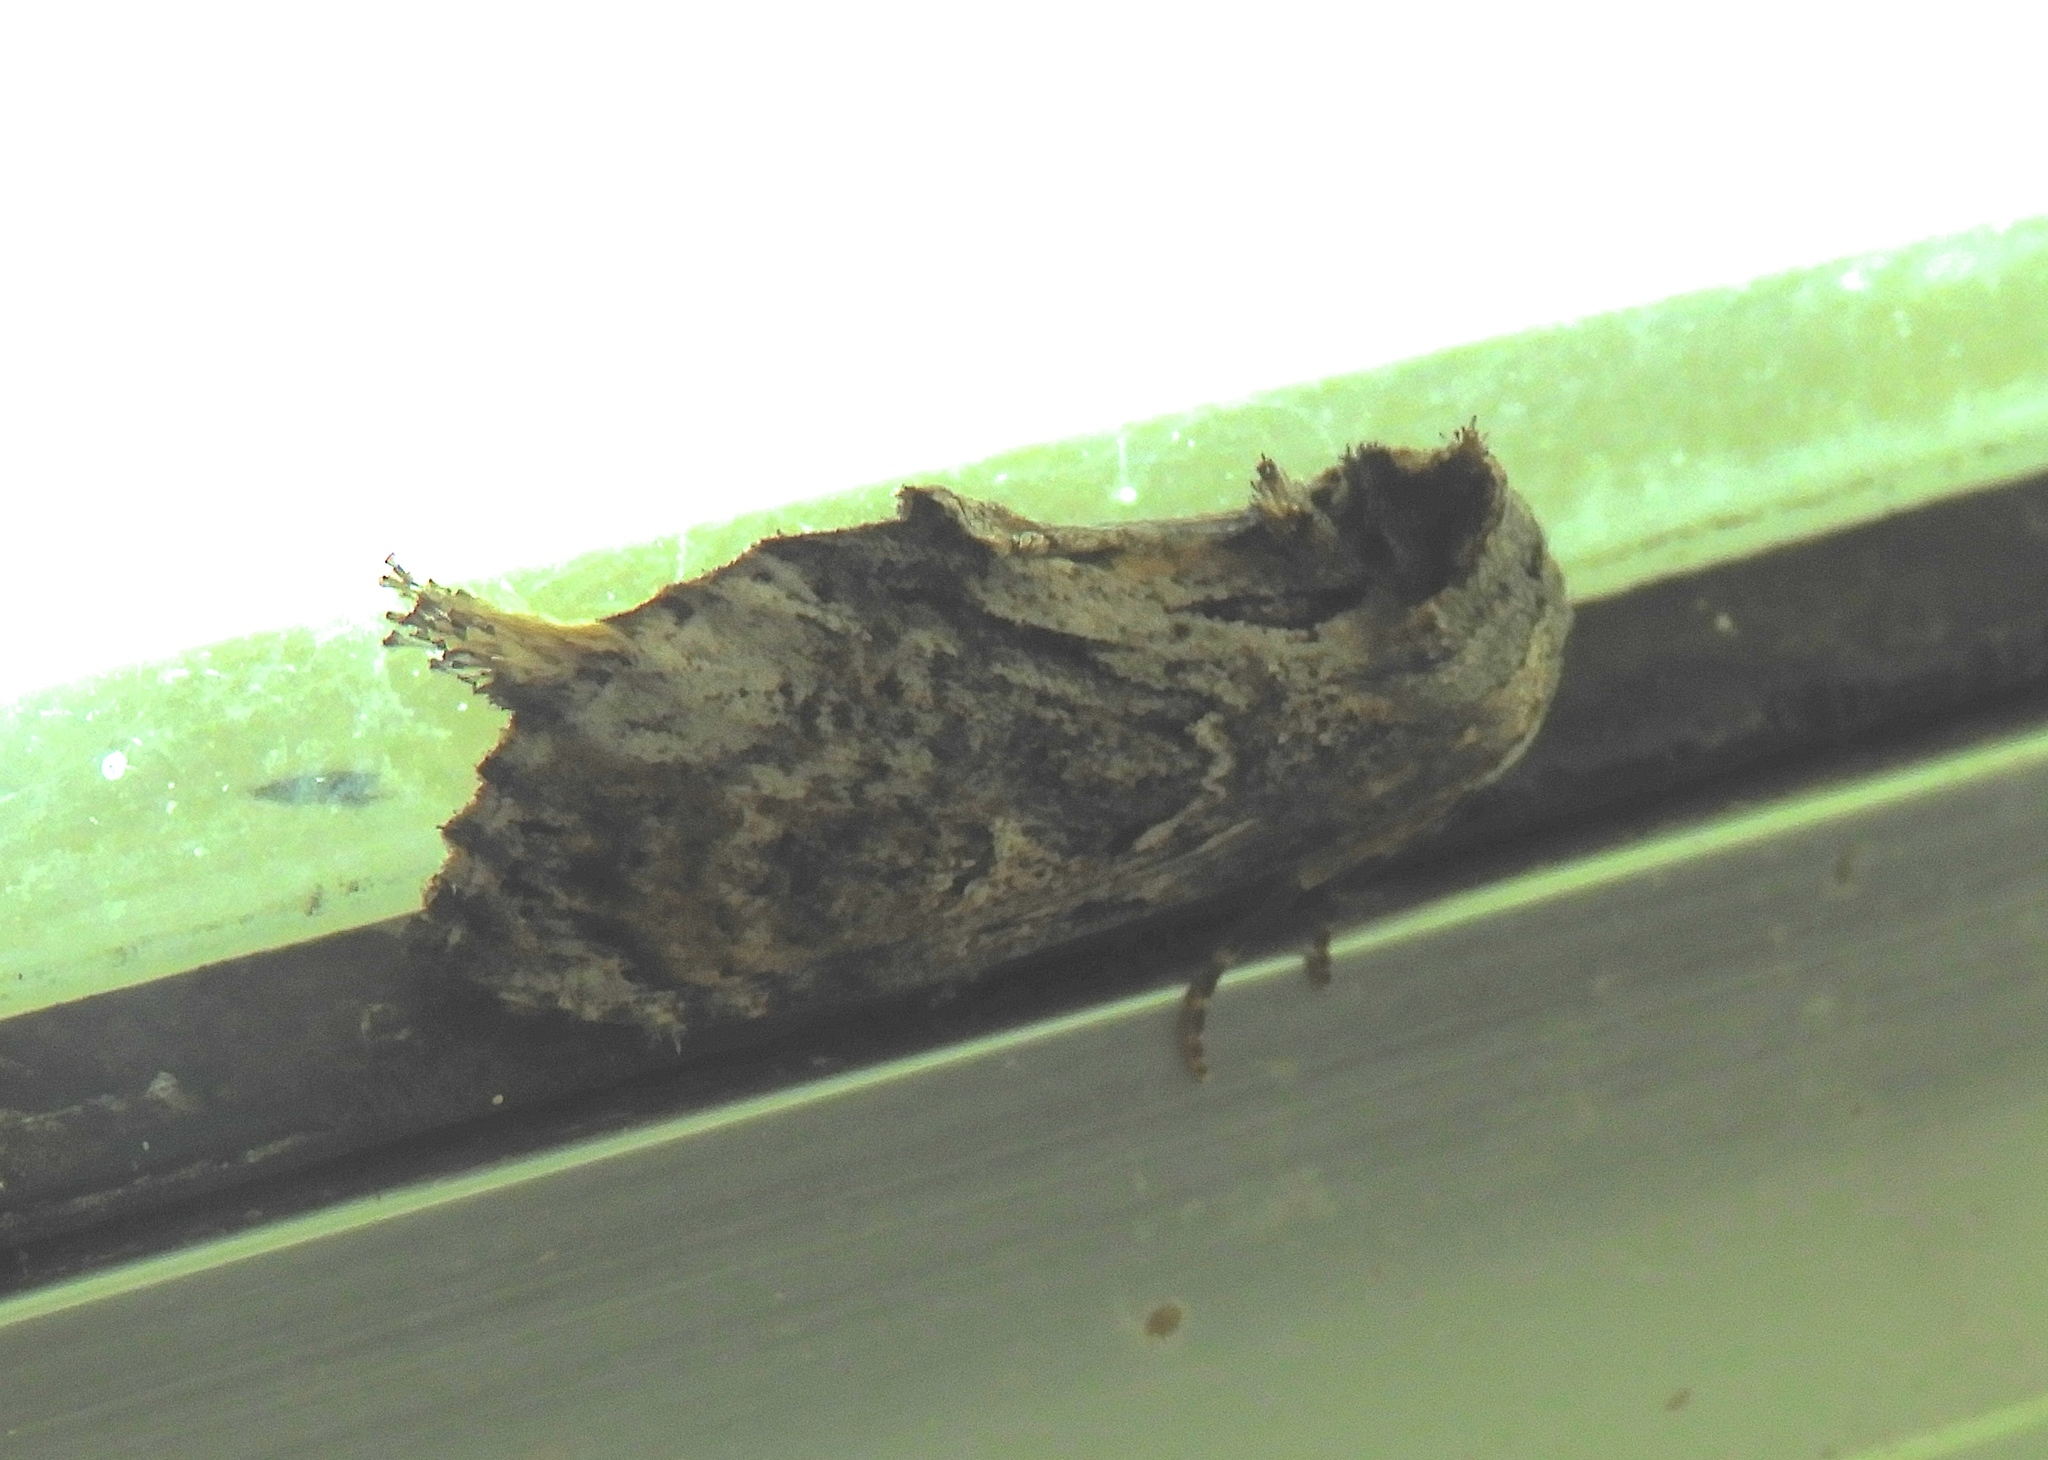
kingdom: Animalia
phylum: Arthropoda
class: Insecta
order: Lepidoptera
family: Notodontidae
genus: Crinodes
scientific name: Crinodes alector
